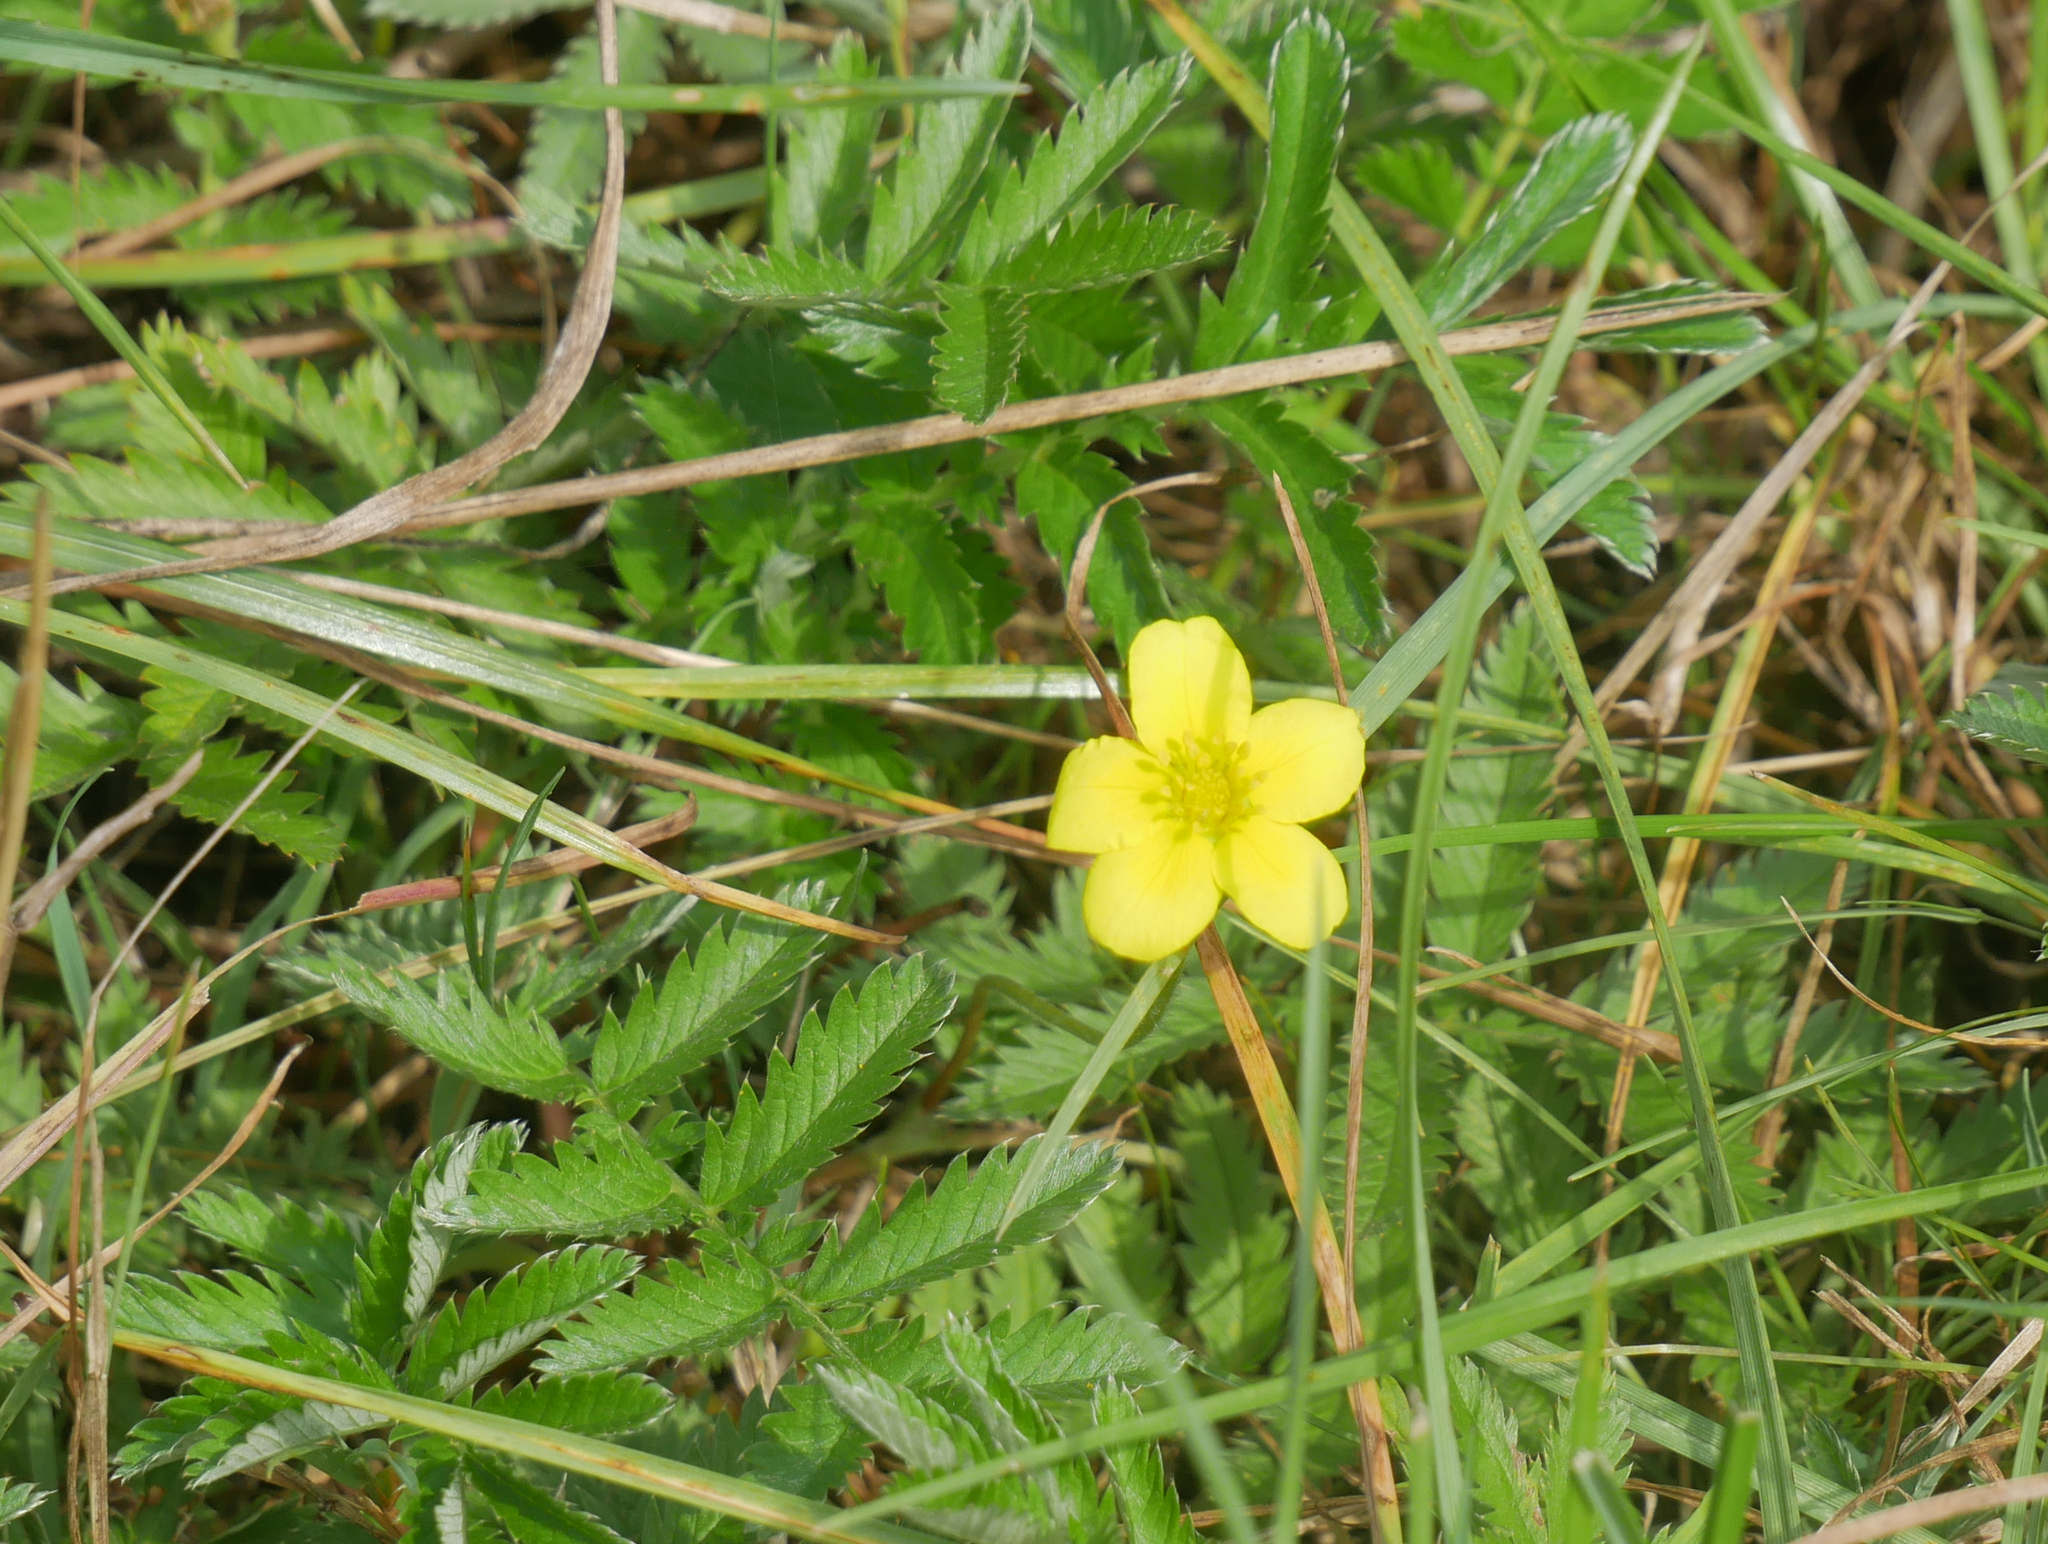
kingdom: Plantae
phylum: Tracheophyta
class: Magnoliopsida
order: Rosales
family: Rosaceae
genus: Argentina
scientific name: Argentina anserina
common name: Common silverweed
